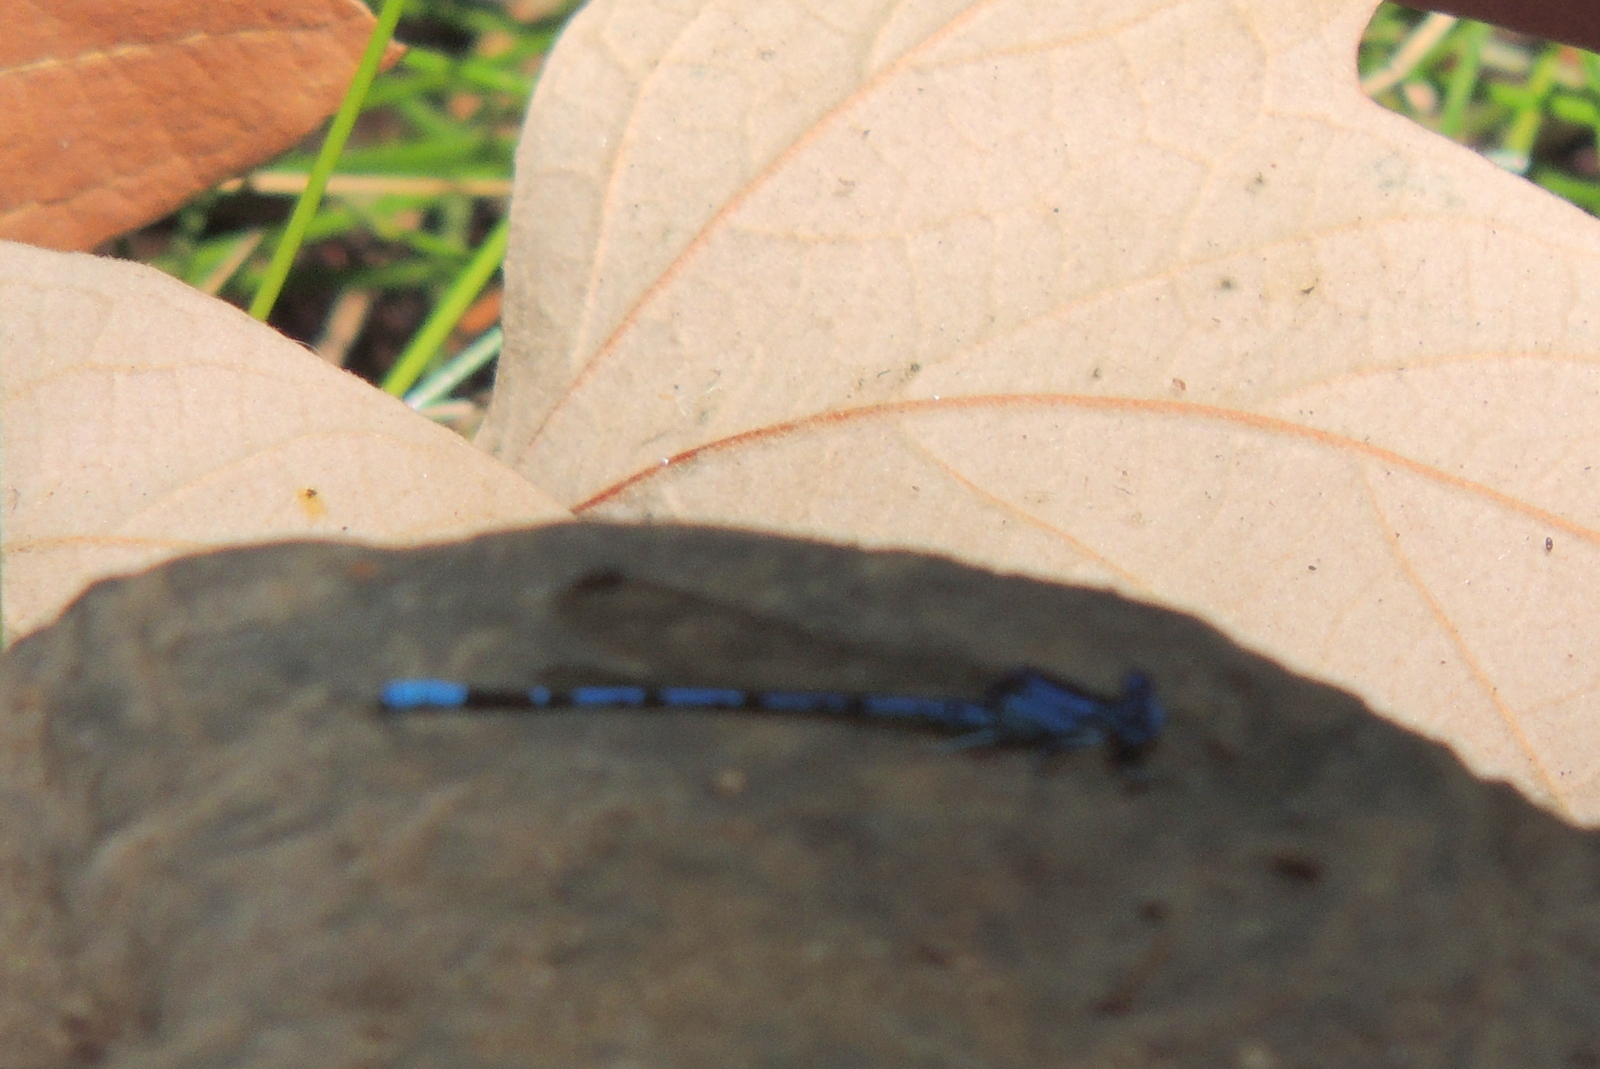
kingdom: Animalia
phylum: Arthropoda
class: Insecta
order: Odonata
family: Coenagrionidae
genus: Argia
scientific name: Argia vivida
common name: Vivid dancer
